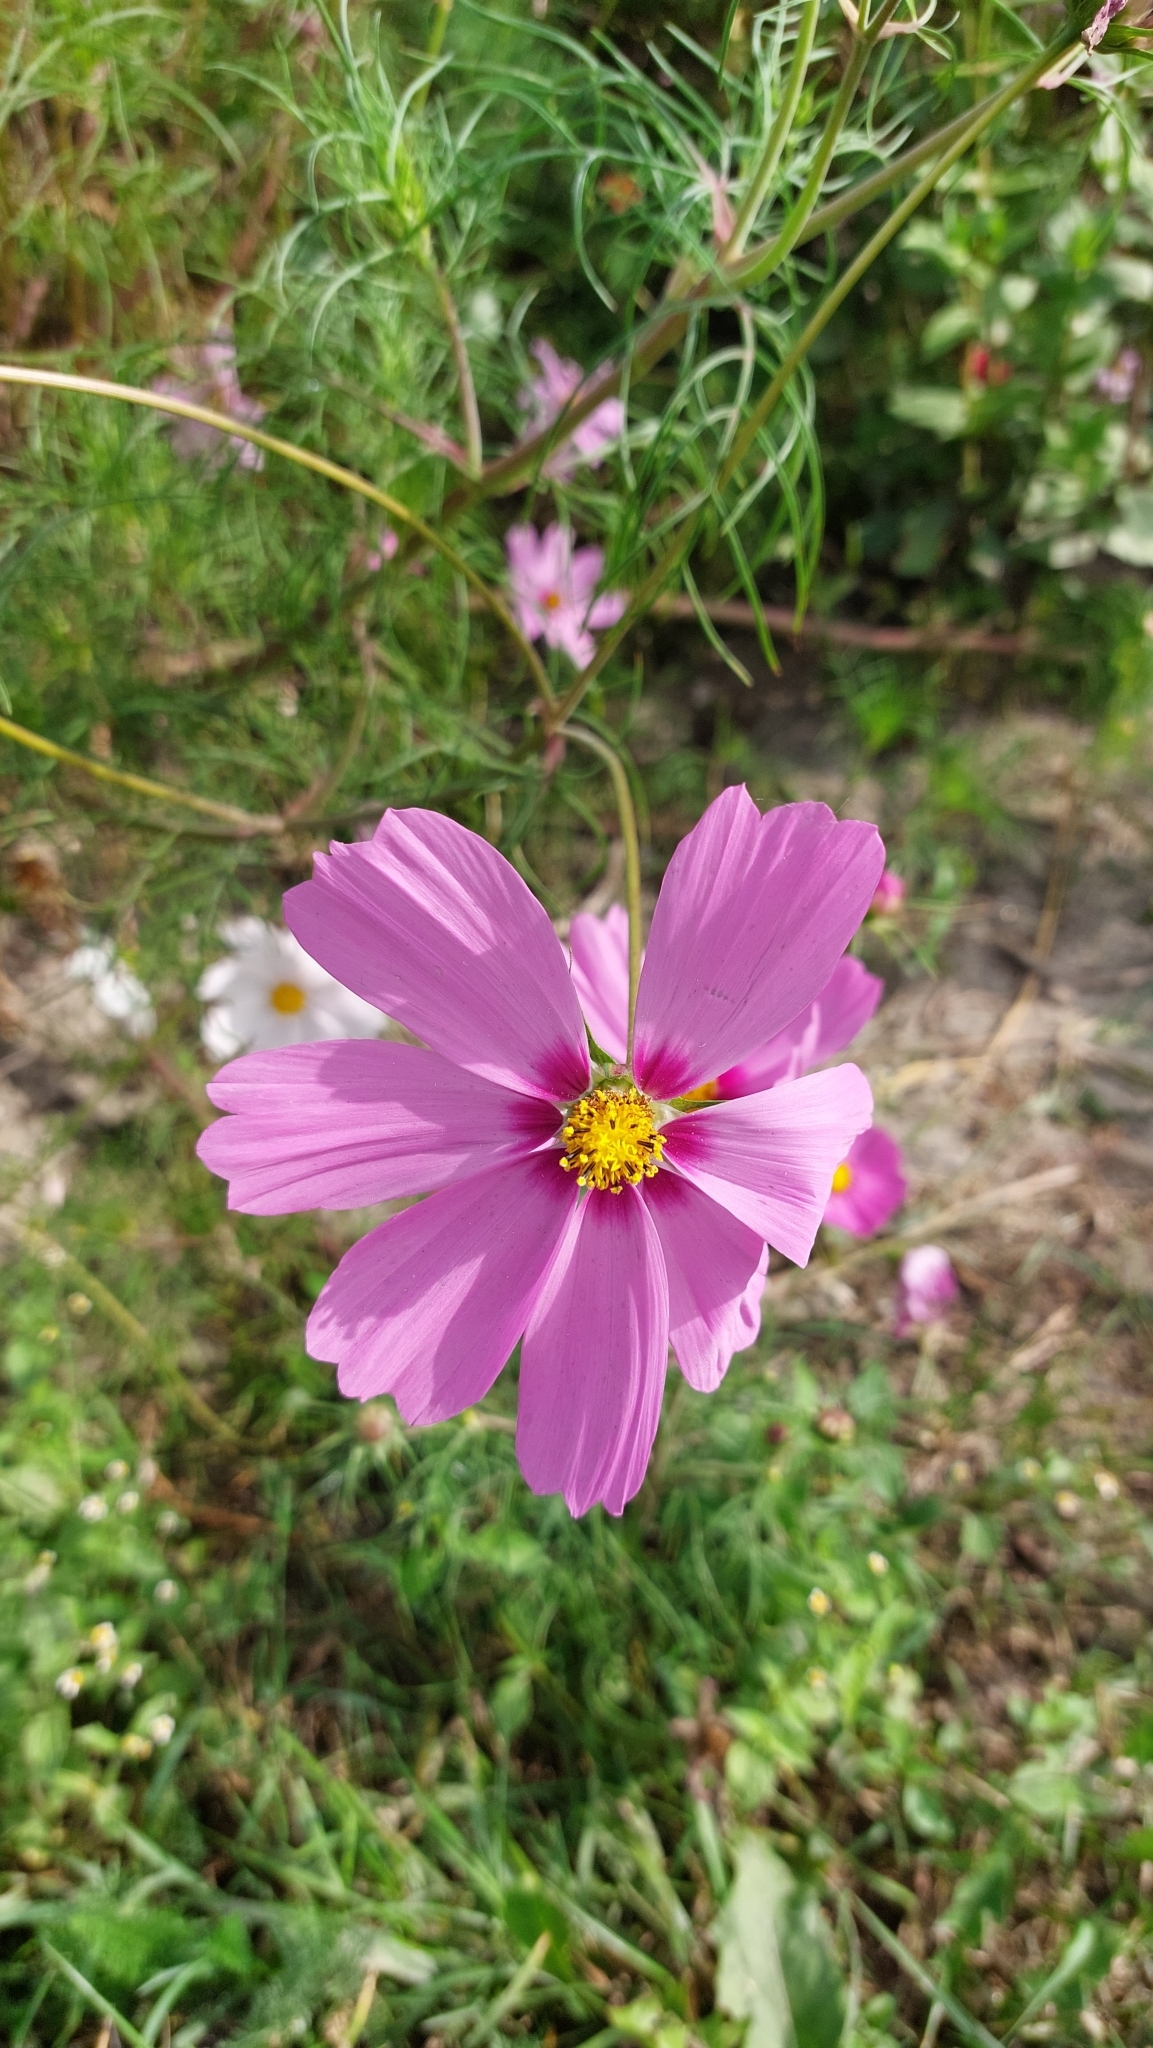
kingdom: Plantae
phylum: Tracheophyta
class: Magnoliopsida
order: Asterales
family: Asteraceae
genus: Cosmos
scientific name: Cosmos bipinnatus
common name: Garden cosmos
